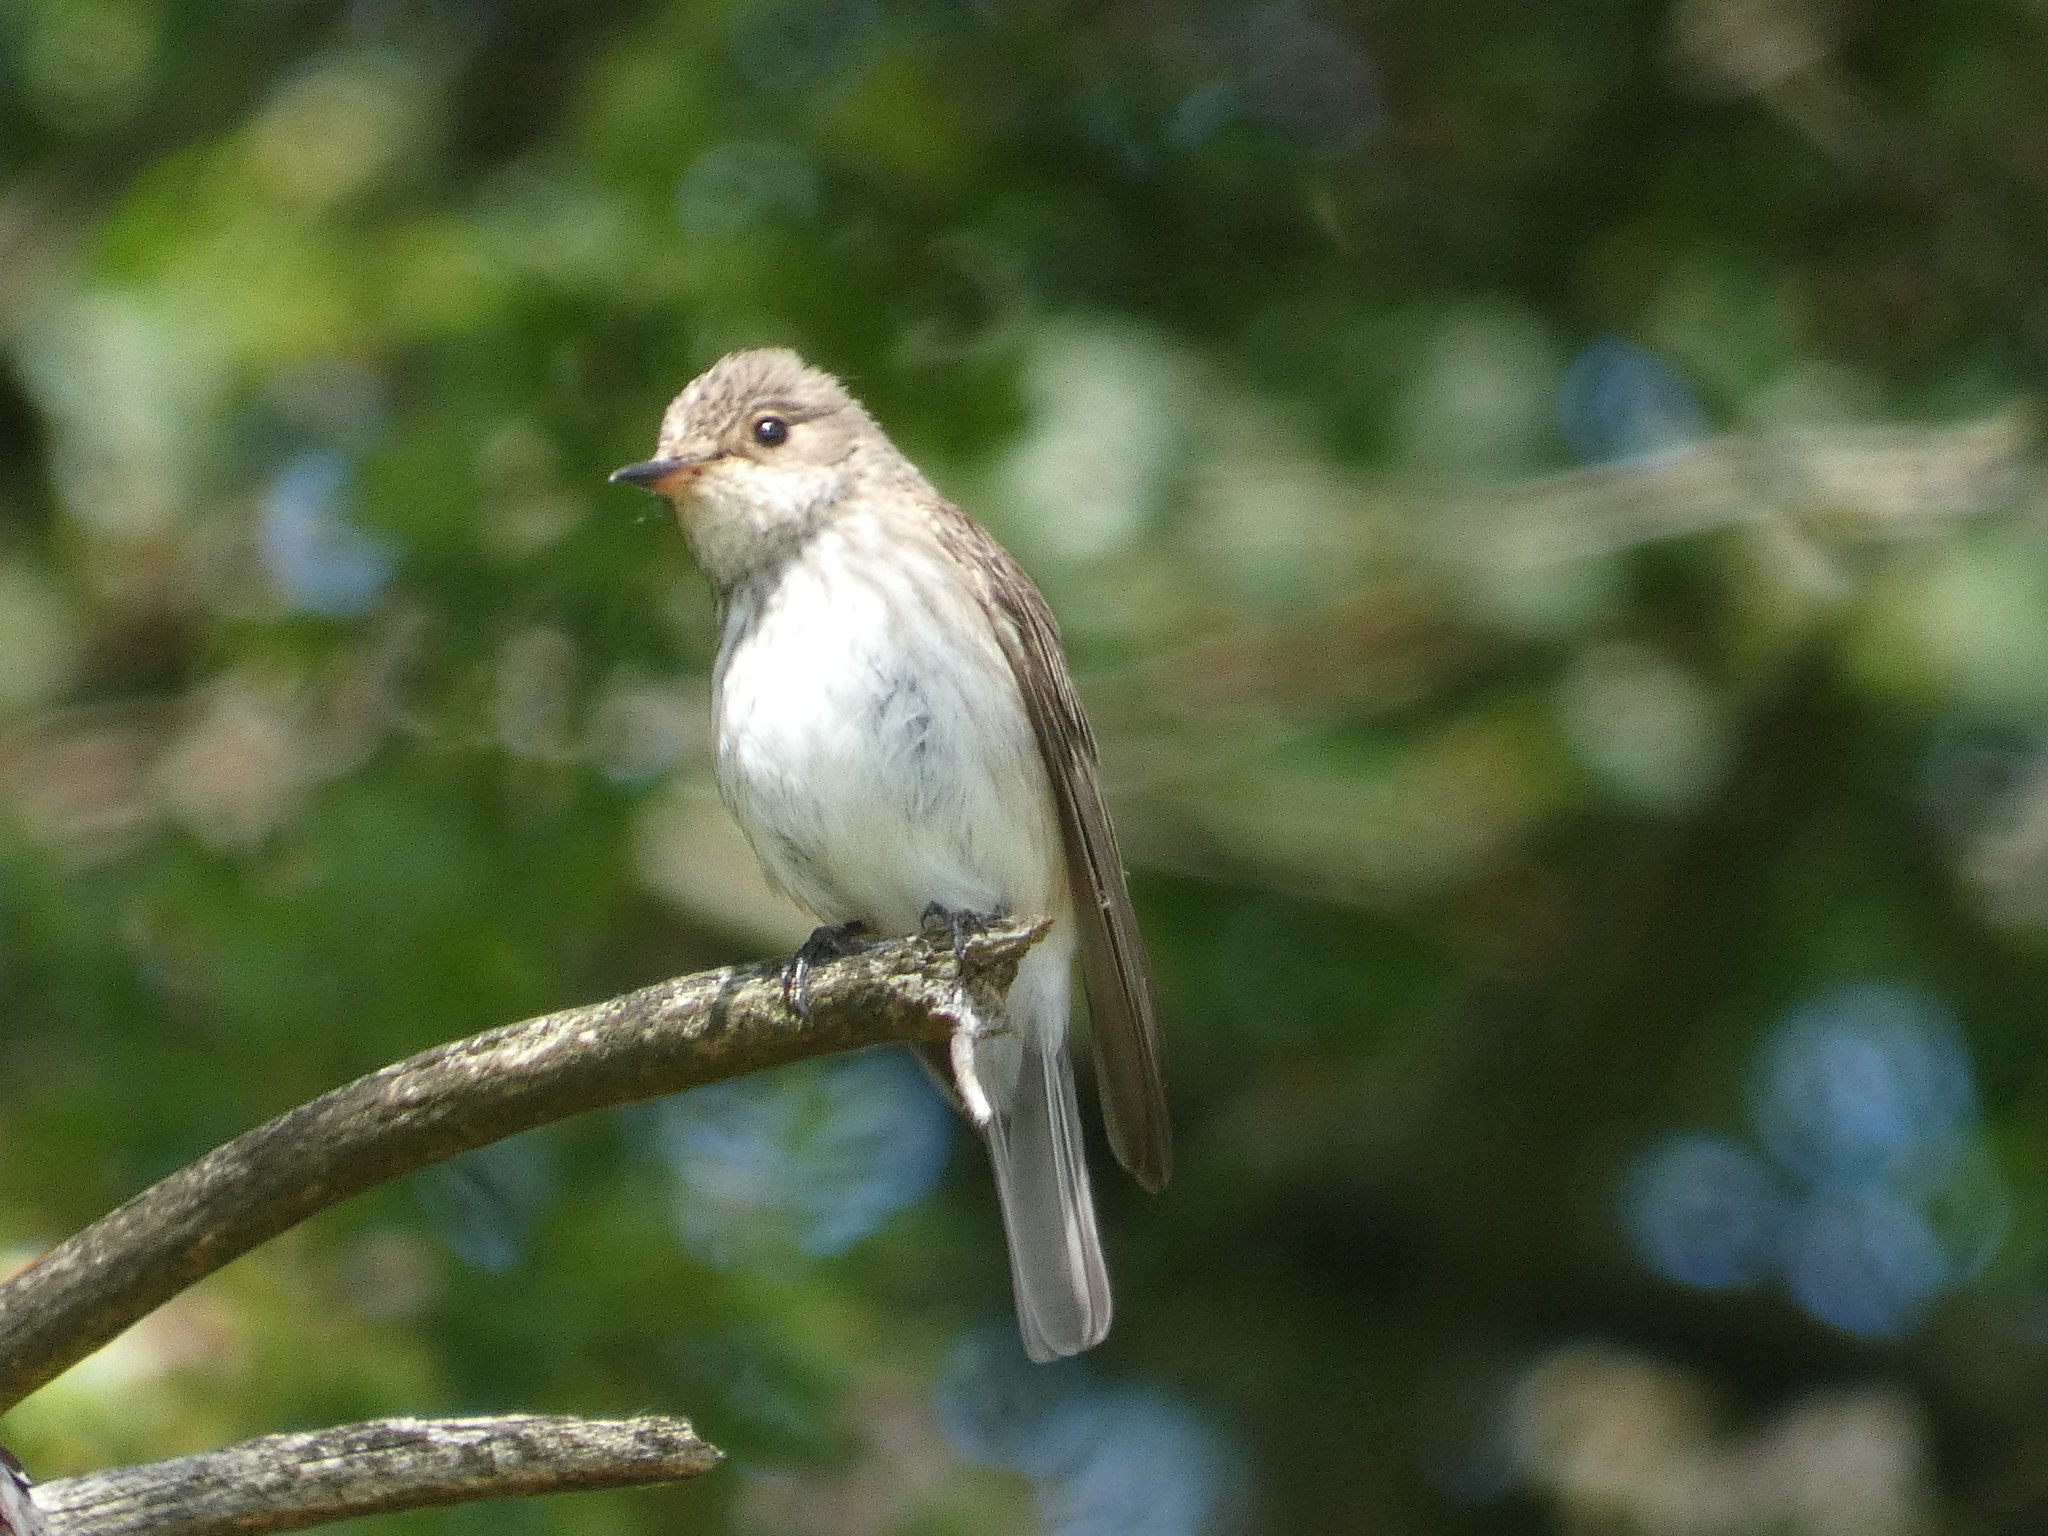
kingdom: Animalia
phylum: Chordata
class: Aves
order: Passeriformes
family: Muscicapidae
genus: Muscicapa
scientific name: Muscicapa striata
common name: Spotted flycatcher
